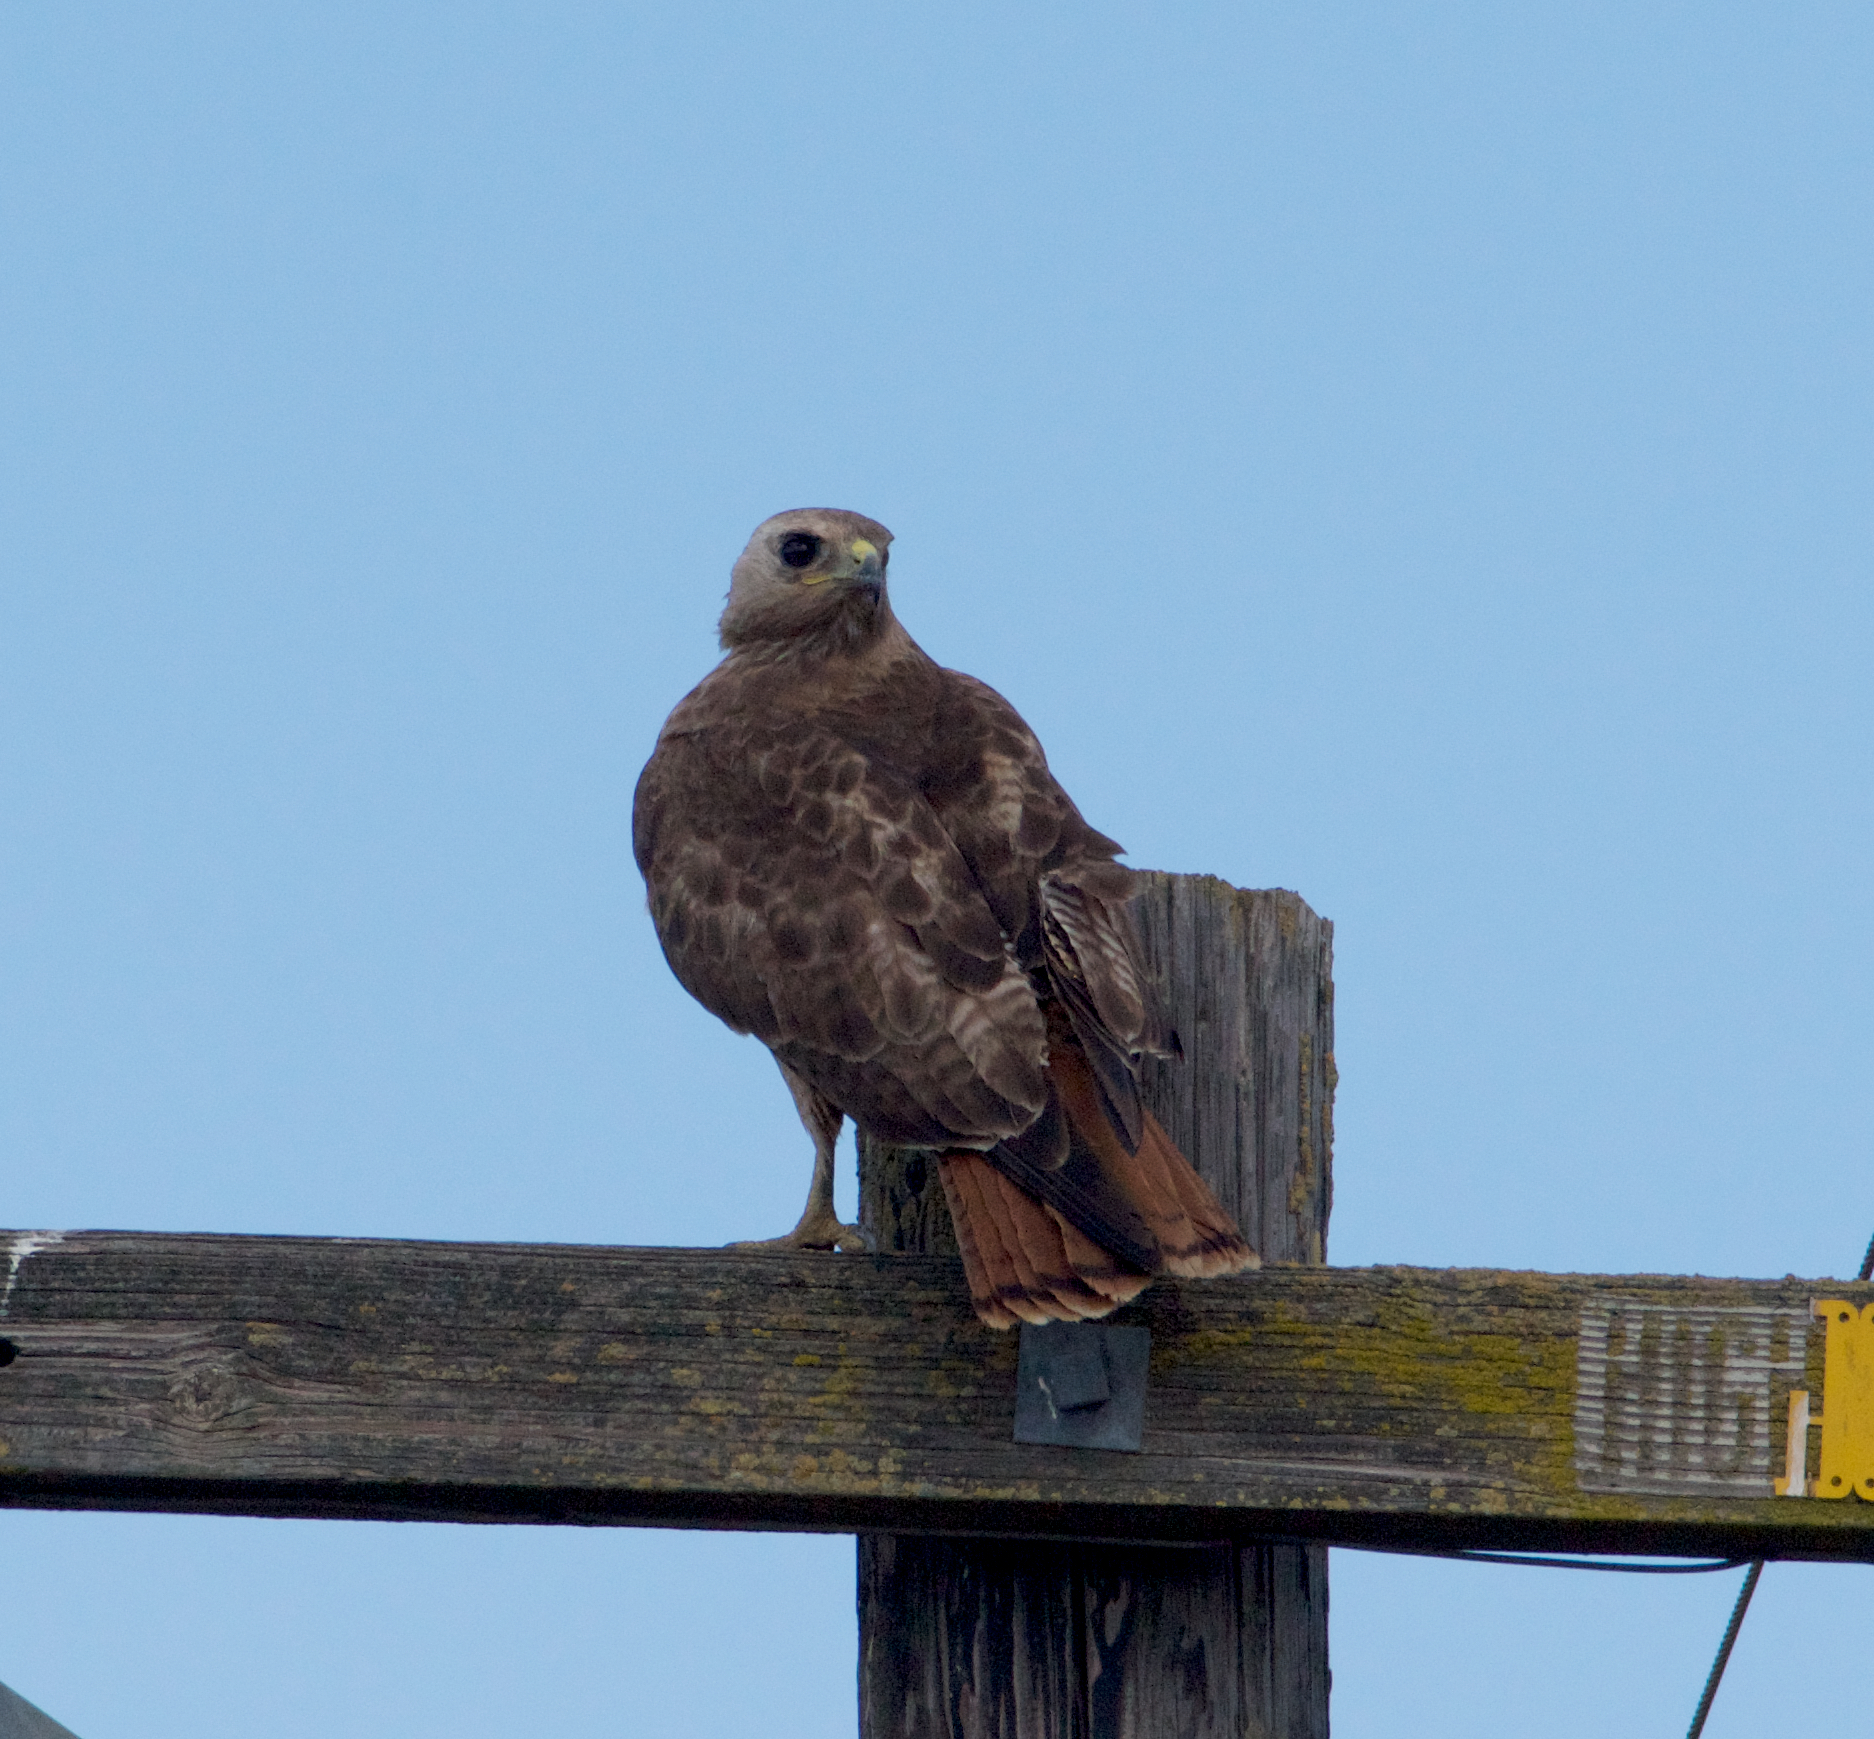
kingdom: Animalia
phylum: Chordata
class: Aves
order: Accipitriformes
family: Accipitridae
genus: Buteo
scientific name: Buteo jamaicensis
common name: Red-tailed hawk
